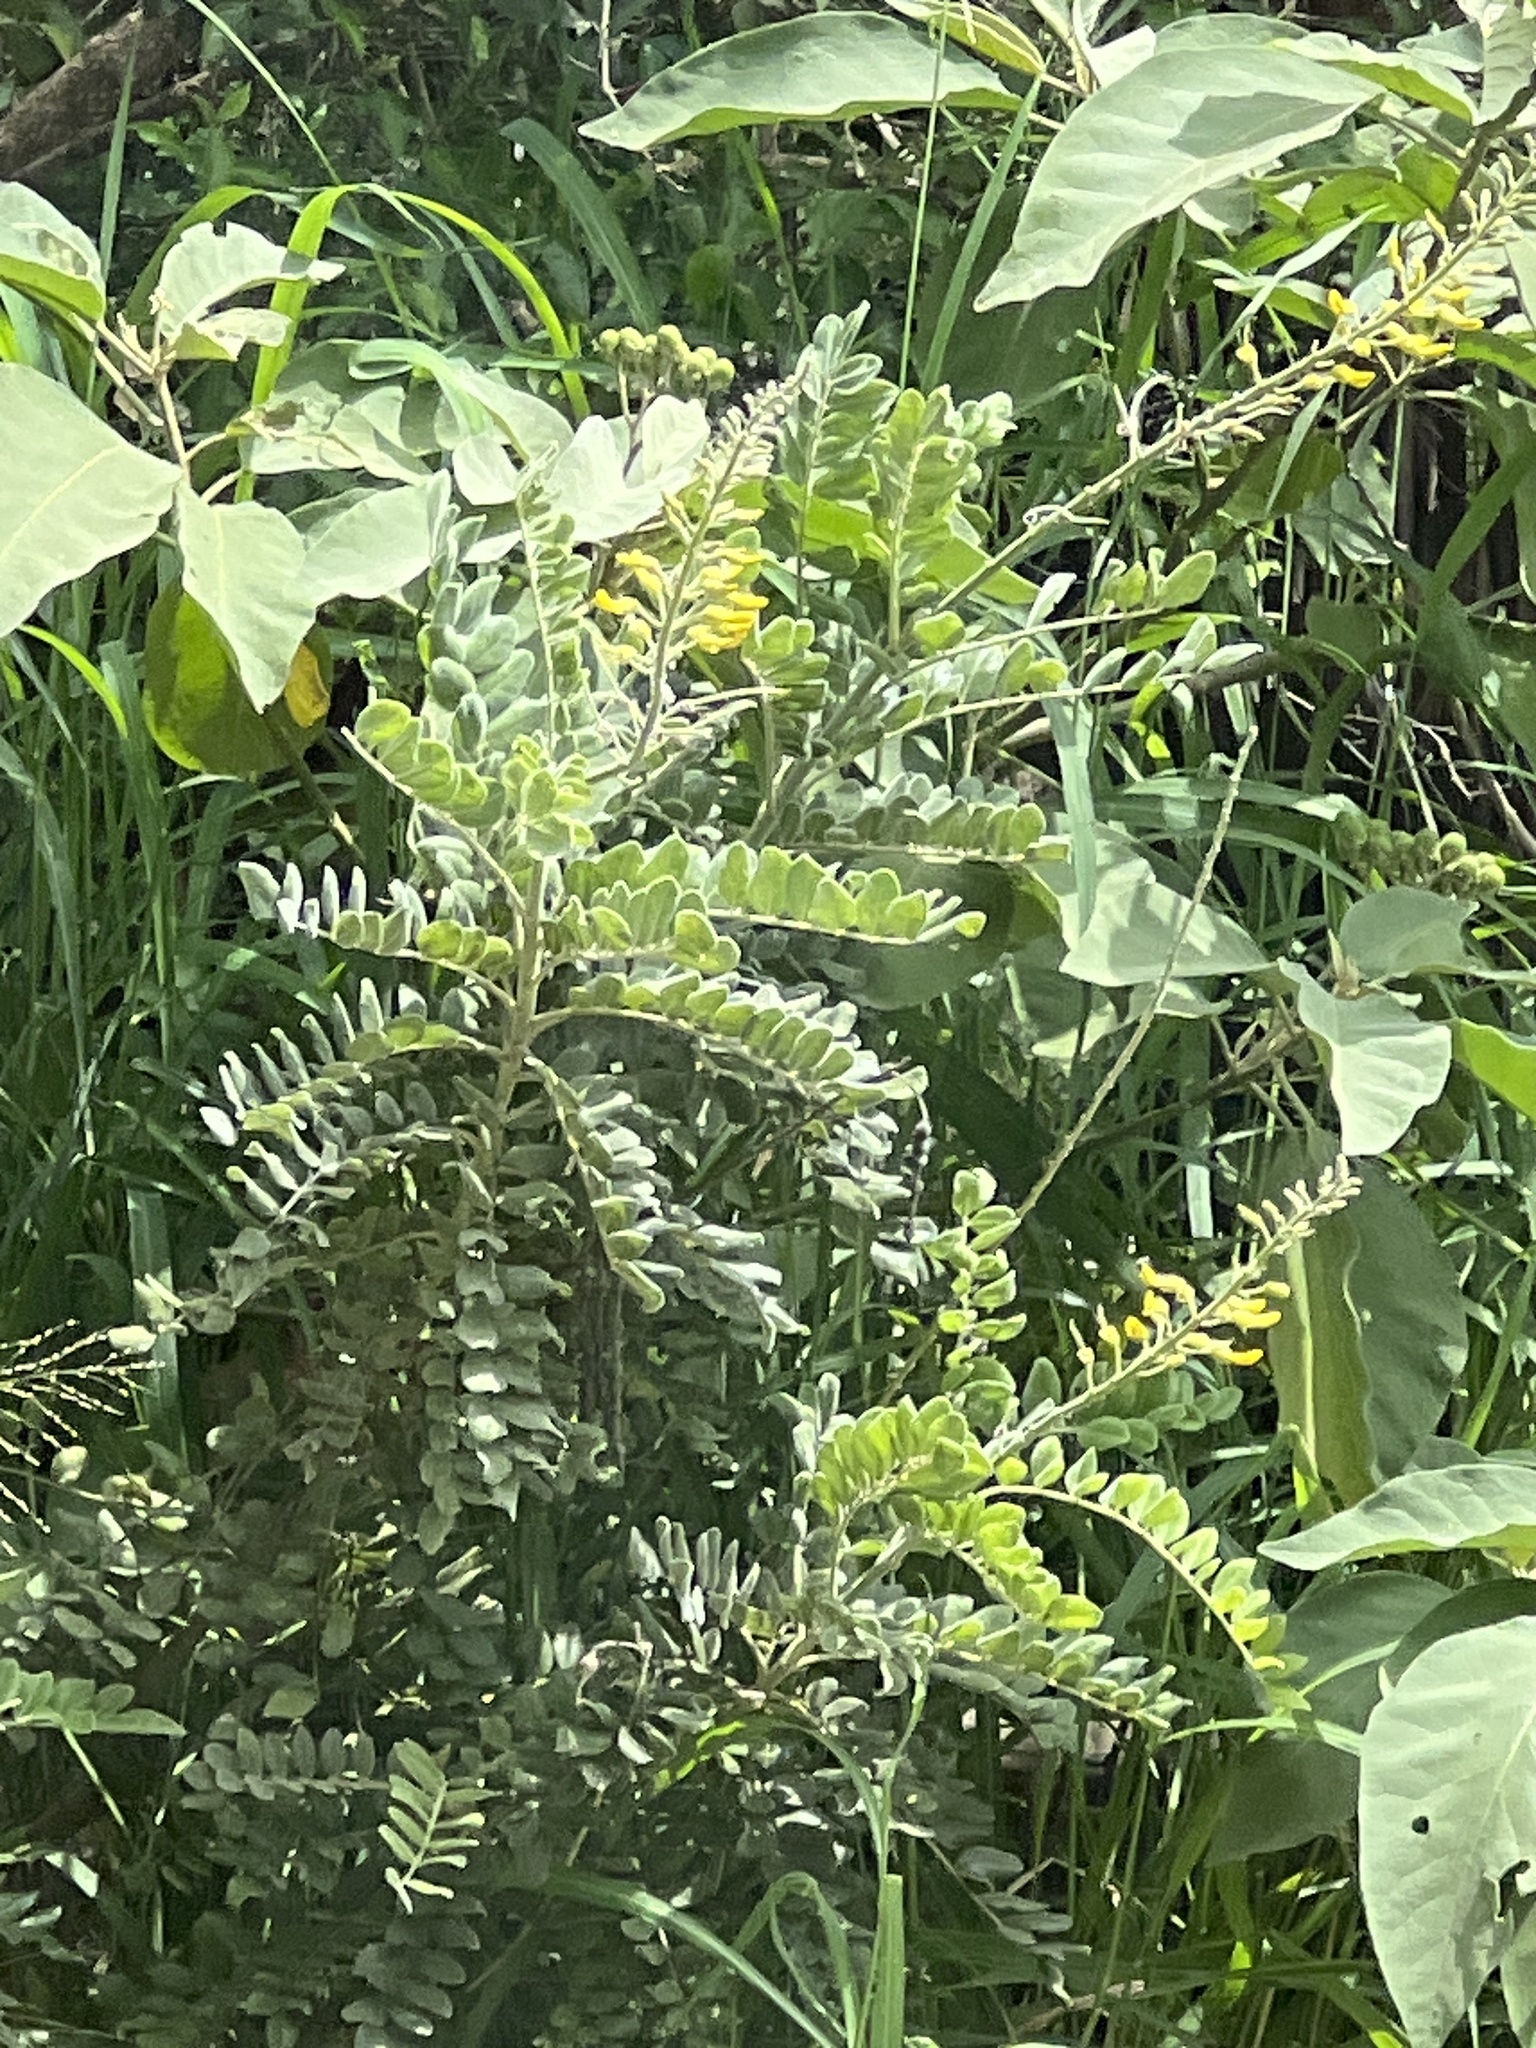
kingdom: Plantae
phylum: Tracheophyta
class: Magnoliopsida
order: Fabales
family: Fabaceae
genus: Sophora
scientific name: Sophora tomentosa
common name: Yellow necklacepod
